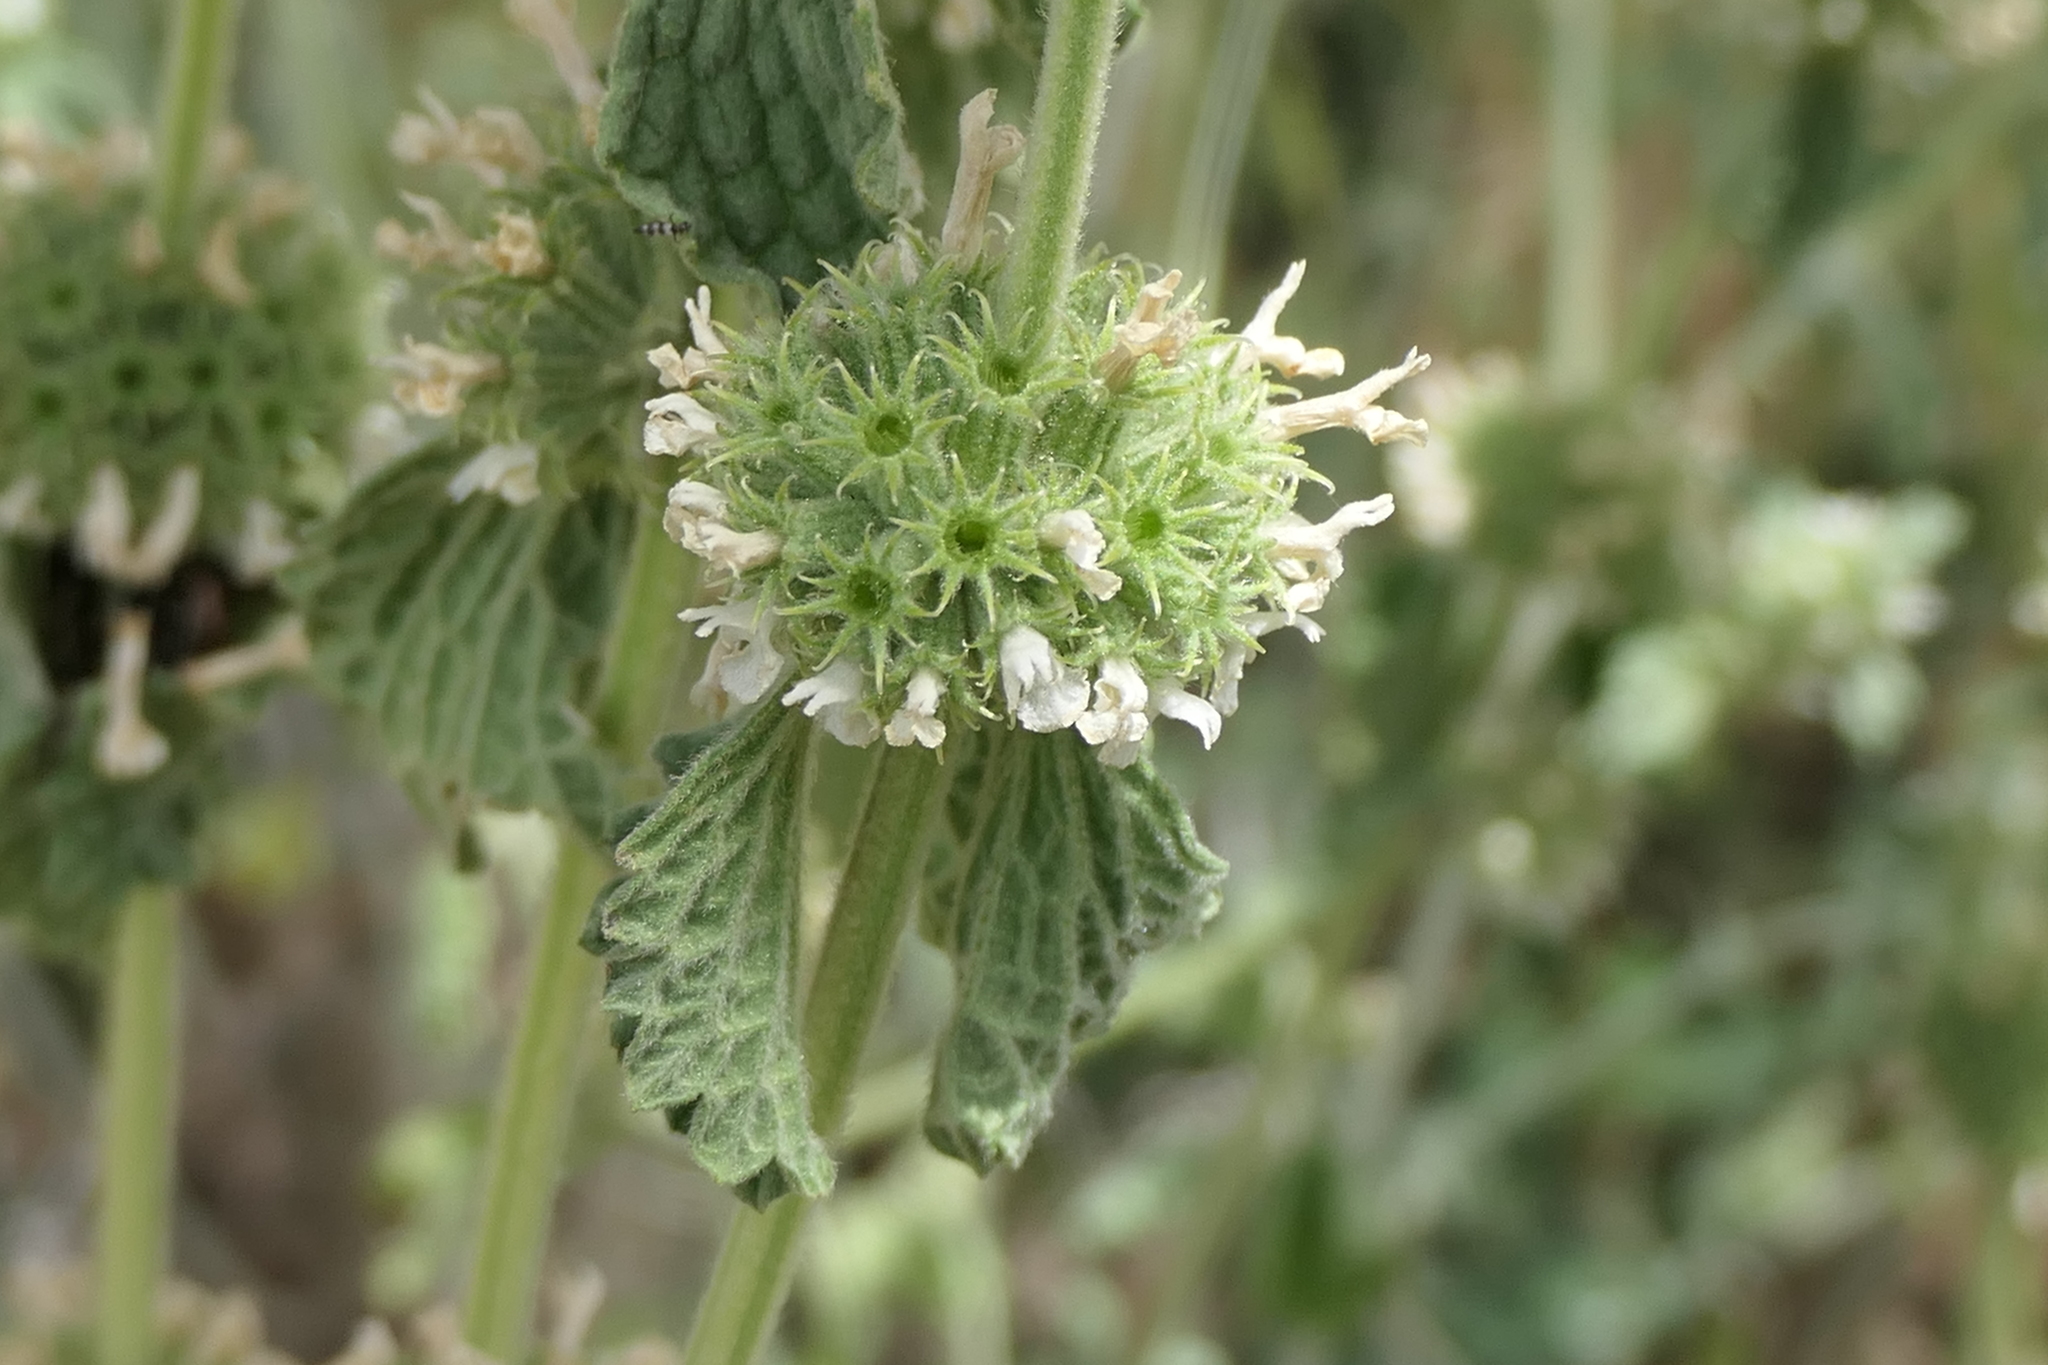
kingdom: Plantae
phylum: Tracheophyta
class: Magnoliopsida
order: Lamiales
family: Lamiaceae
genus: Marrubium
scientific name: Marrubium vulgare
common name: Horehound
